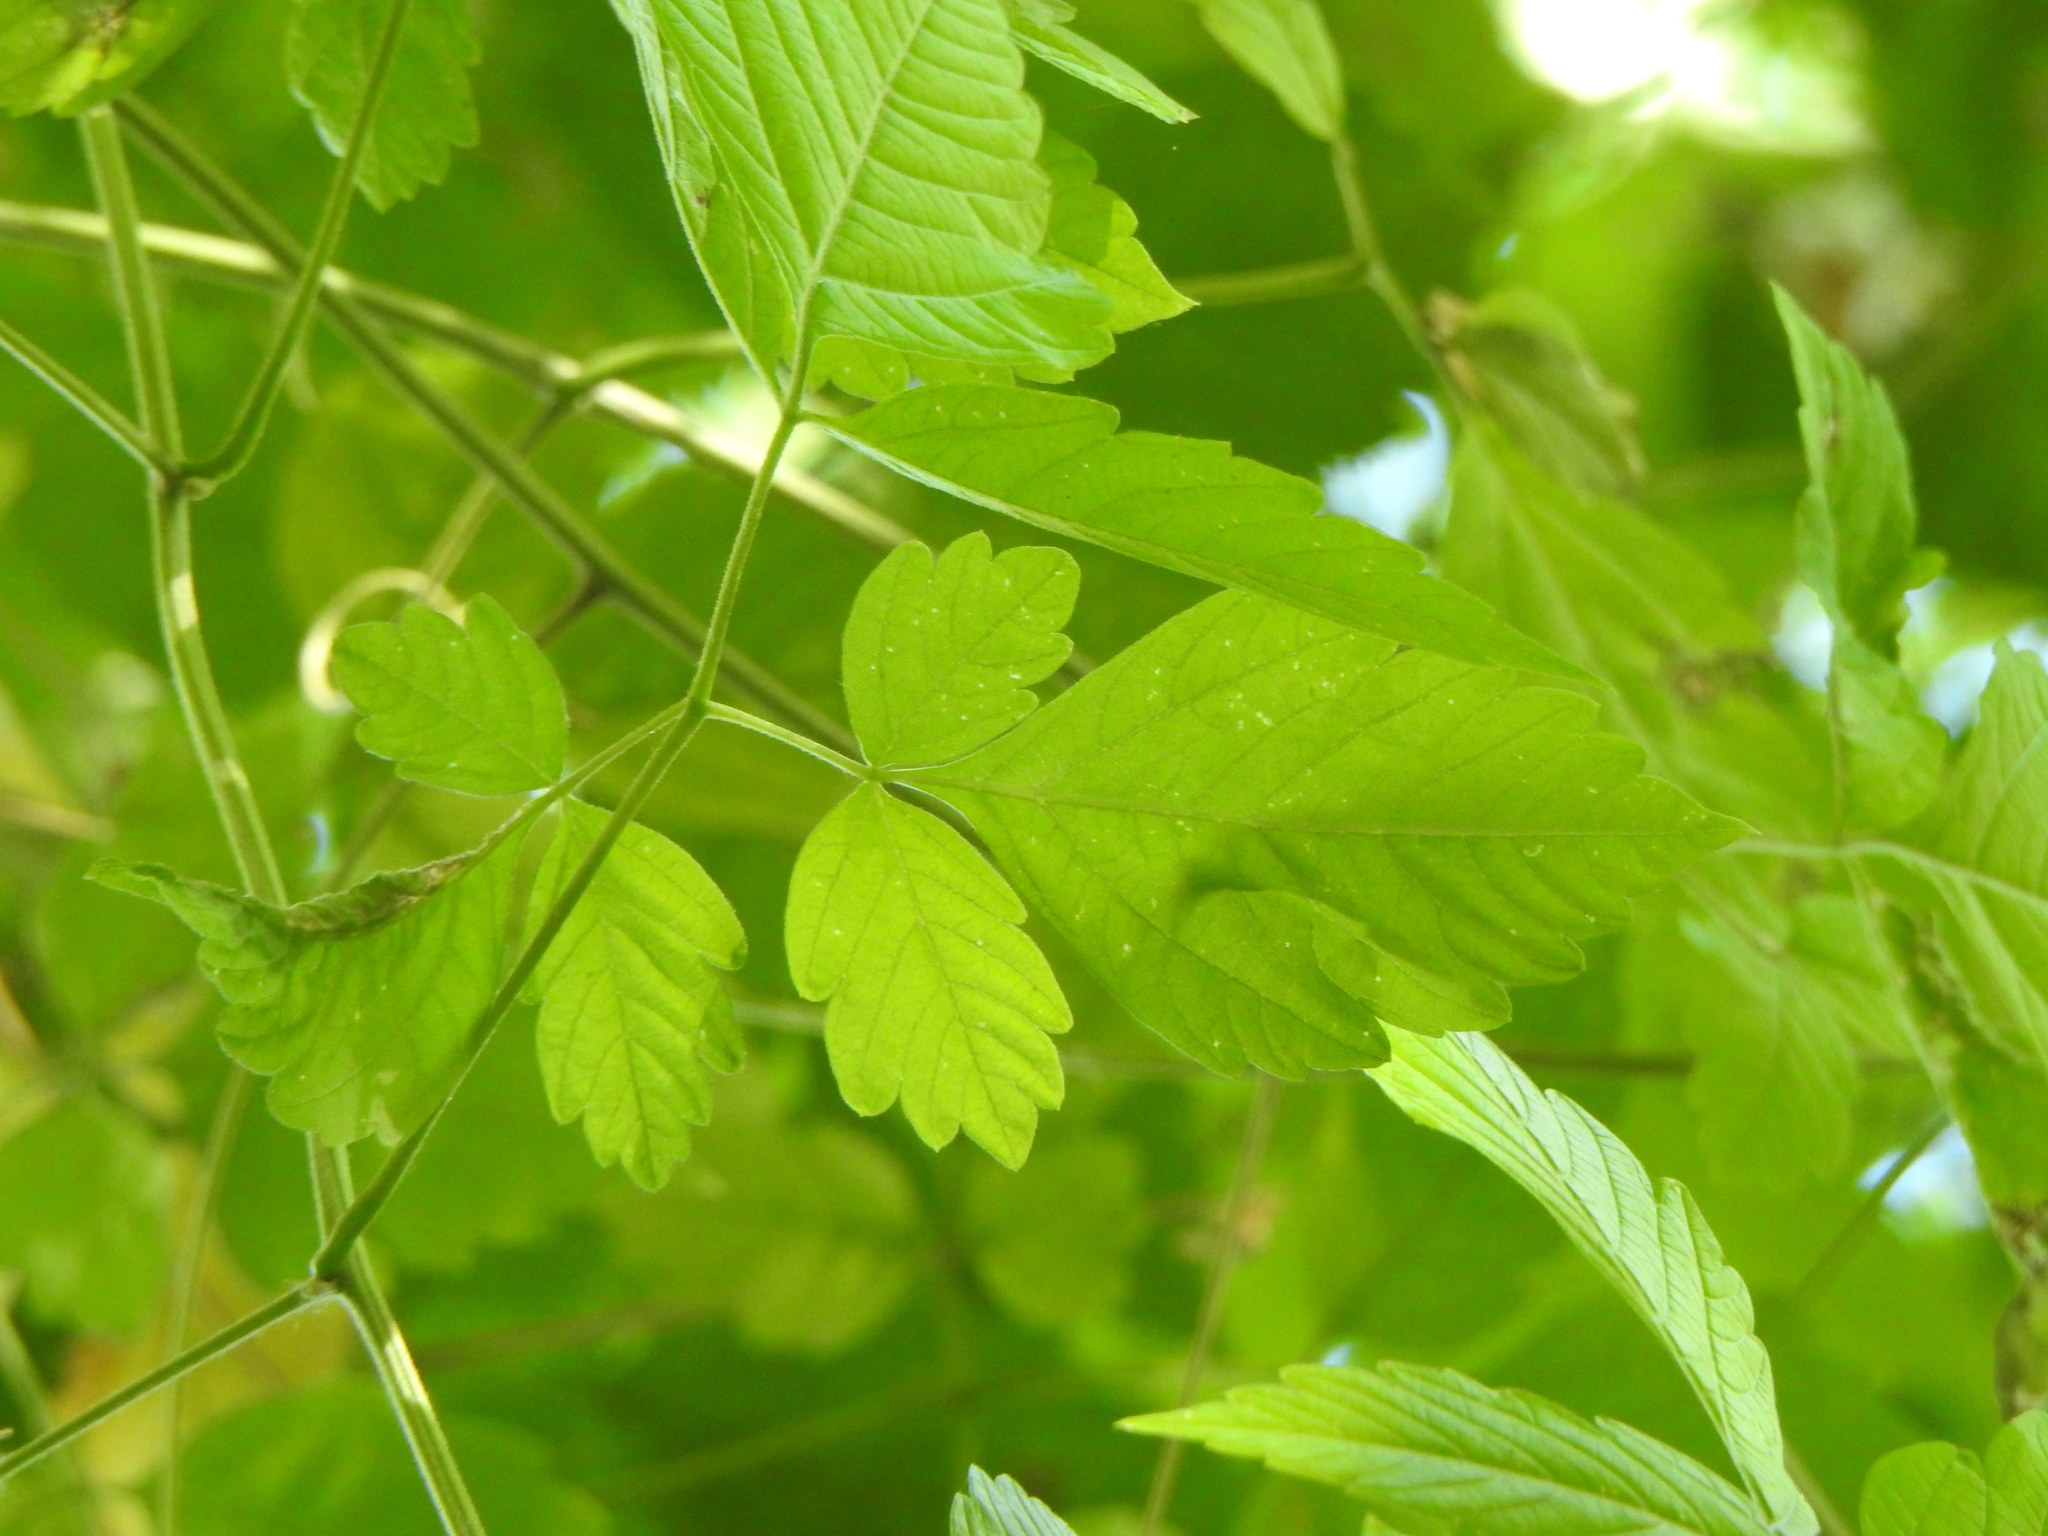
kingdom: Plantae
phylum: Tracheophyta
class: Magnoliopsida
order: Sapindales
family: Sapindaceae
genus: Cardiospermum
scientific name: Cardiospermum grandiflorum
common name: Balloon vine
